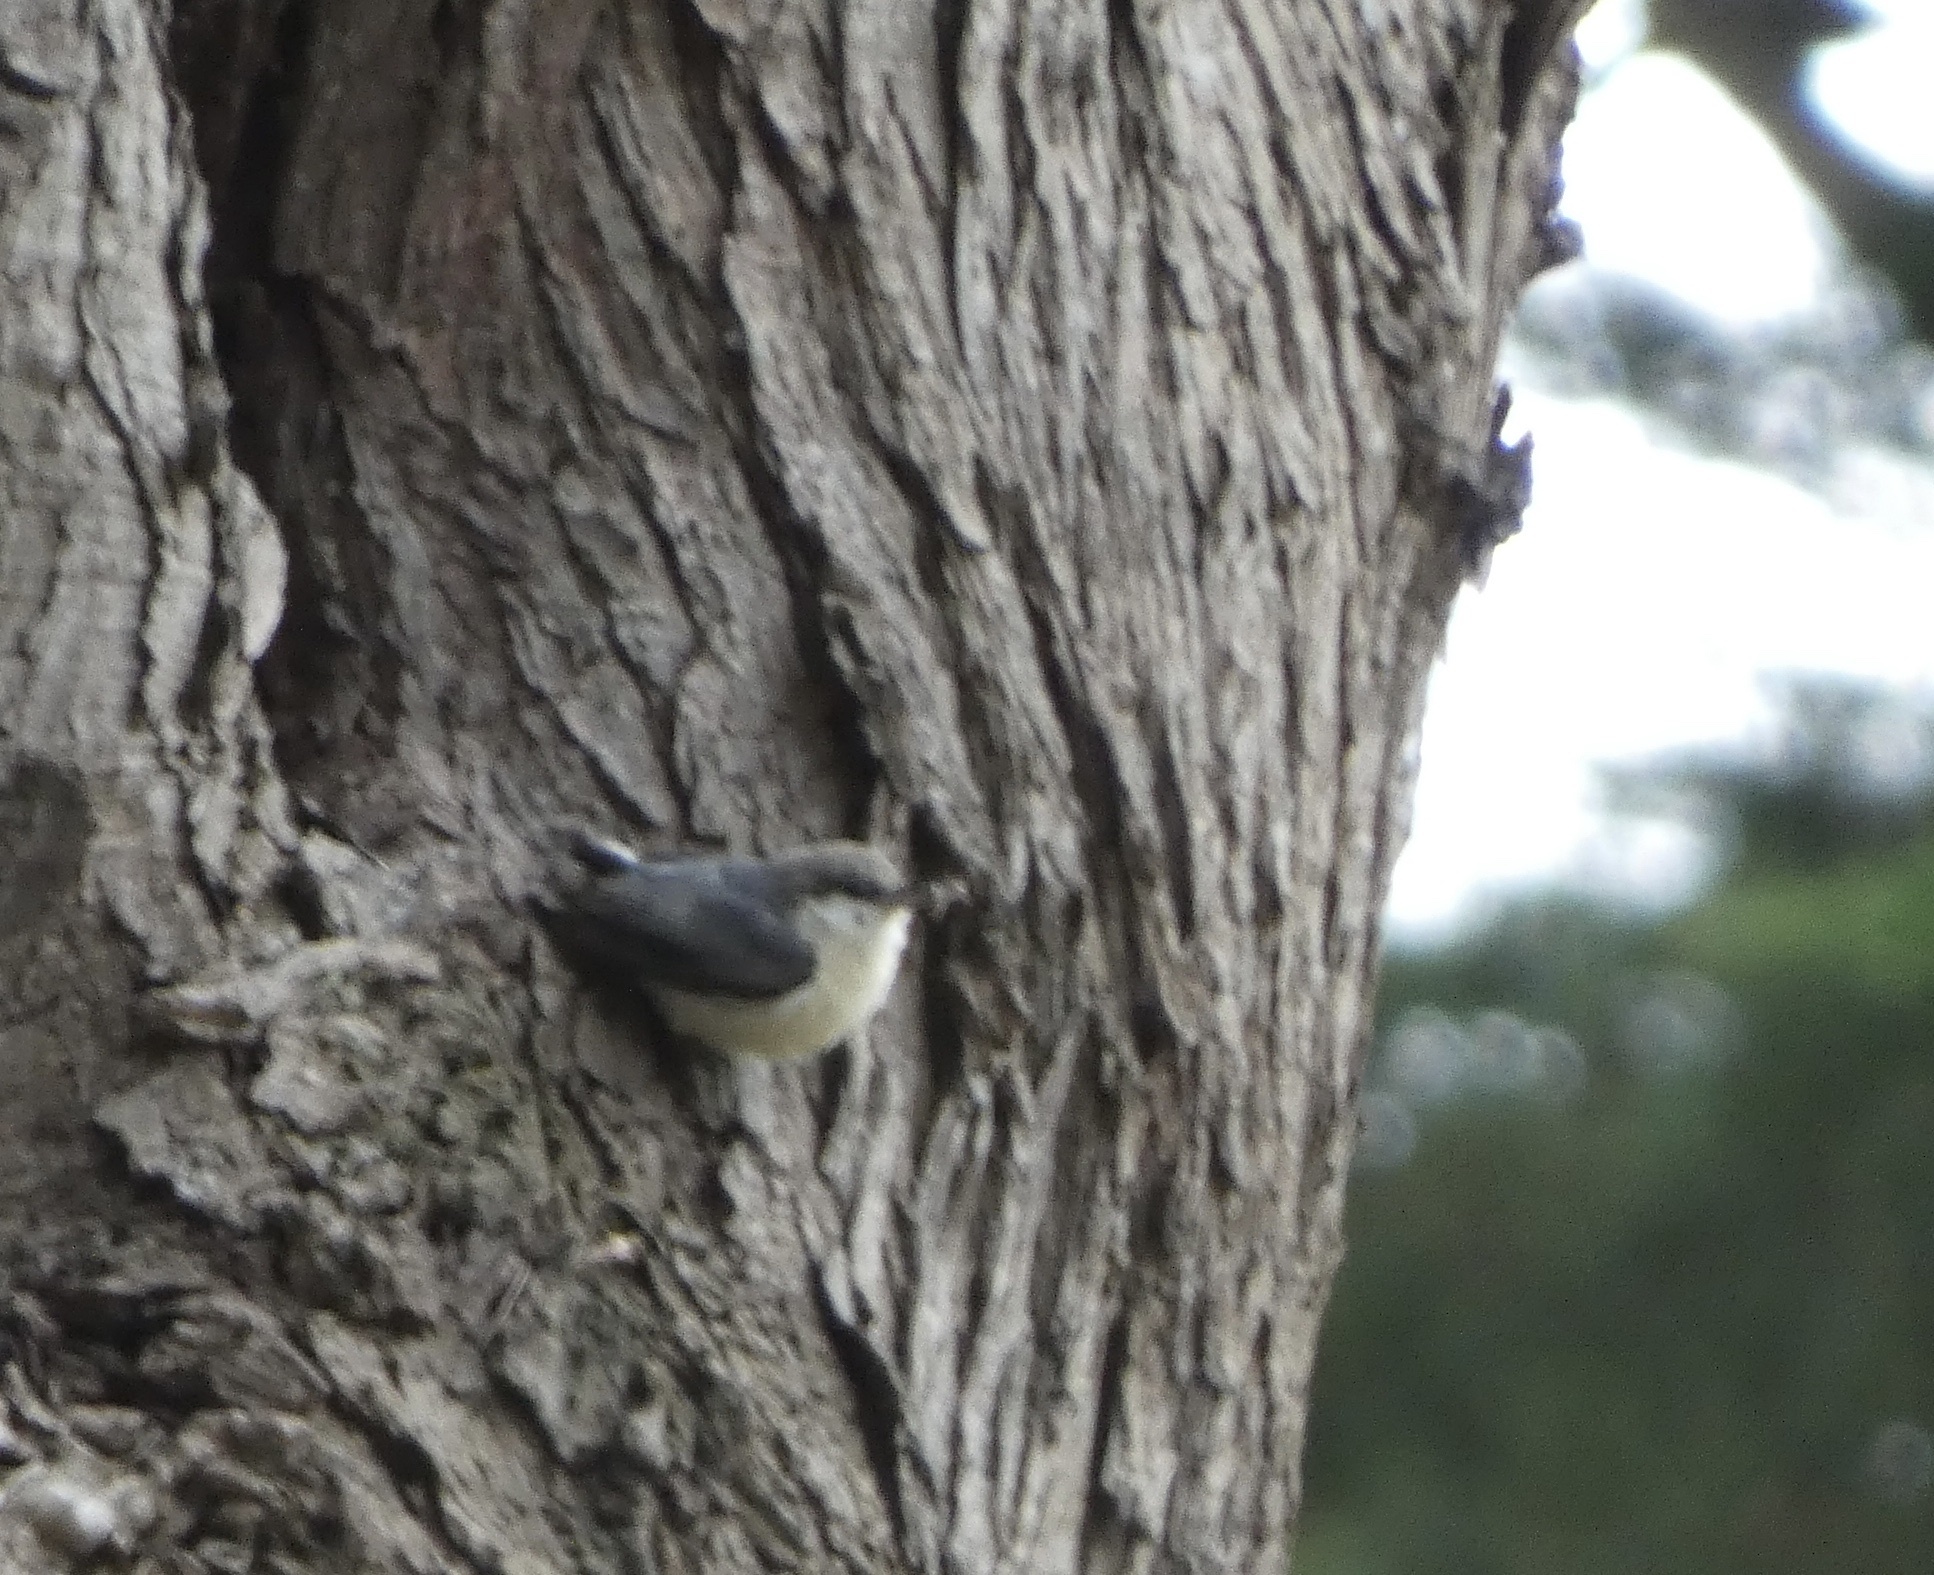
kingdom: Animalia
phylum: Chordata
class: Aves
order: Passeriformes
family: Sittidae
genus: Sitta
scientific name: Sitta pygmaea
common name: Pygmy nuthatch
